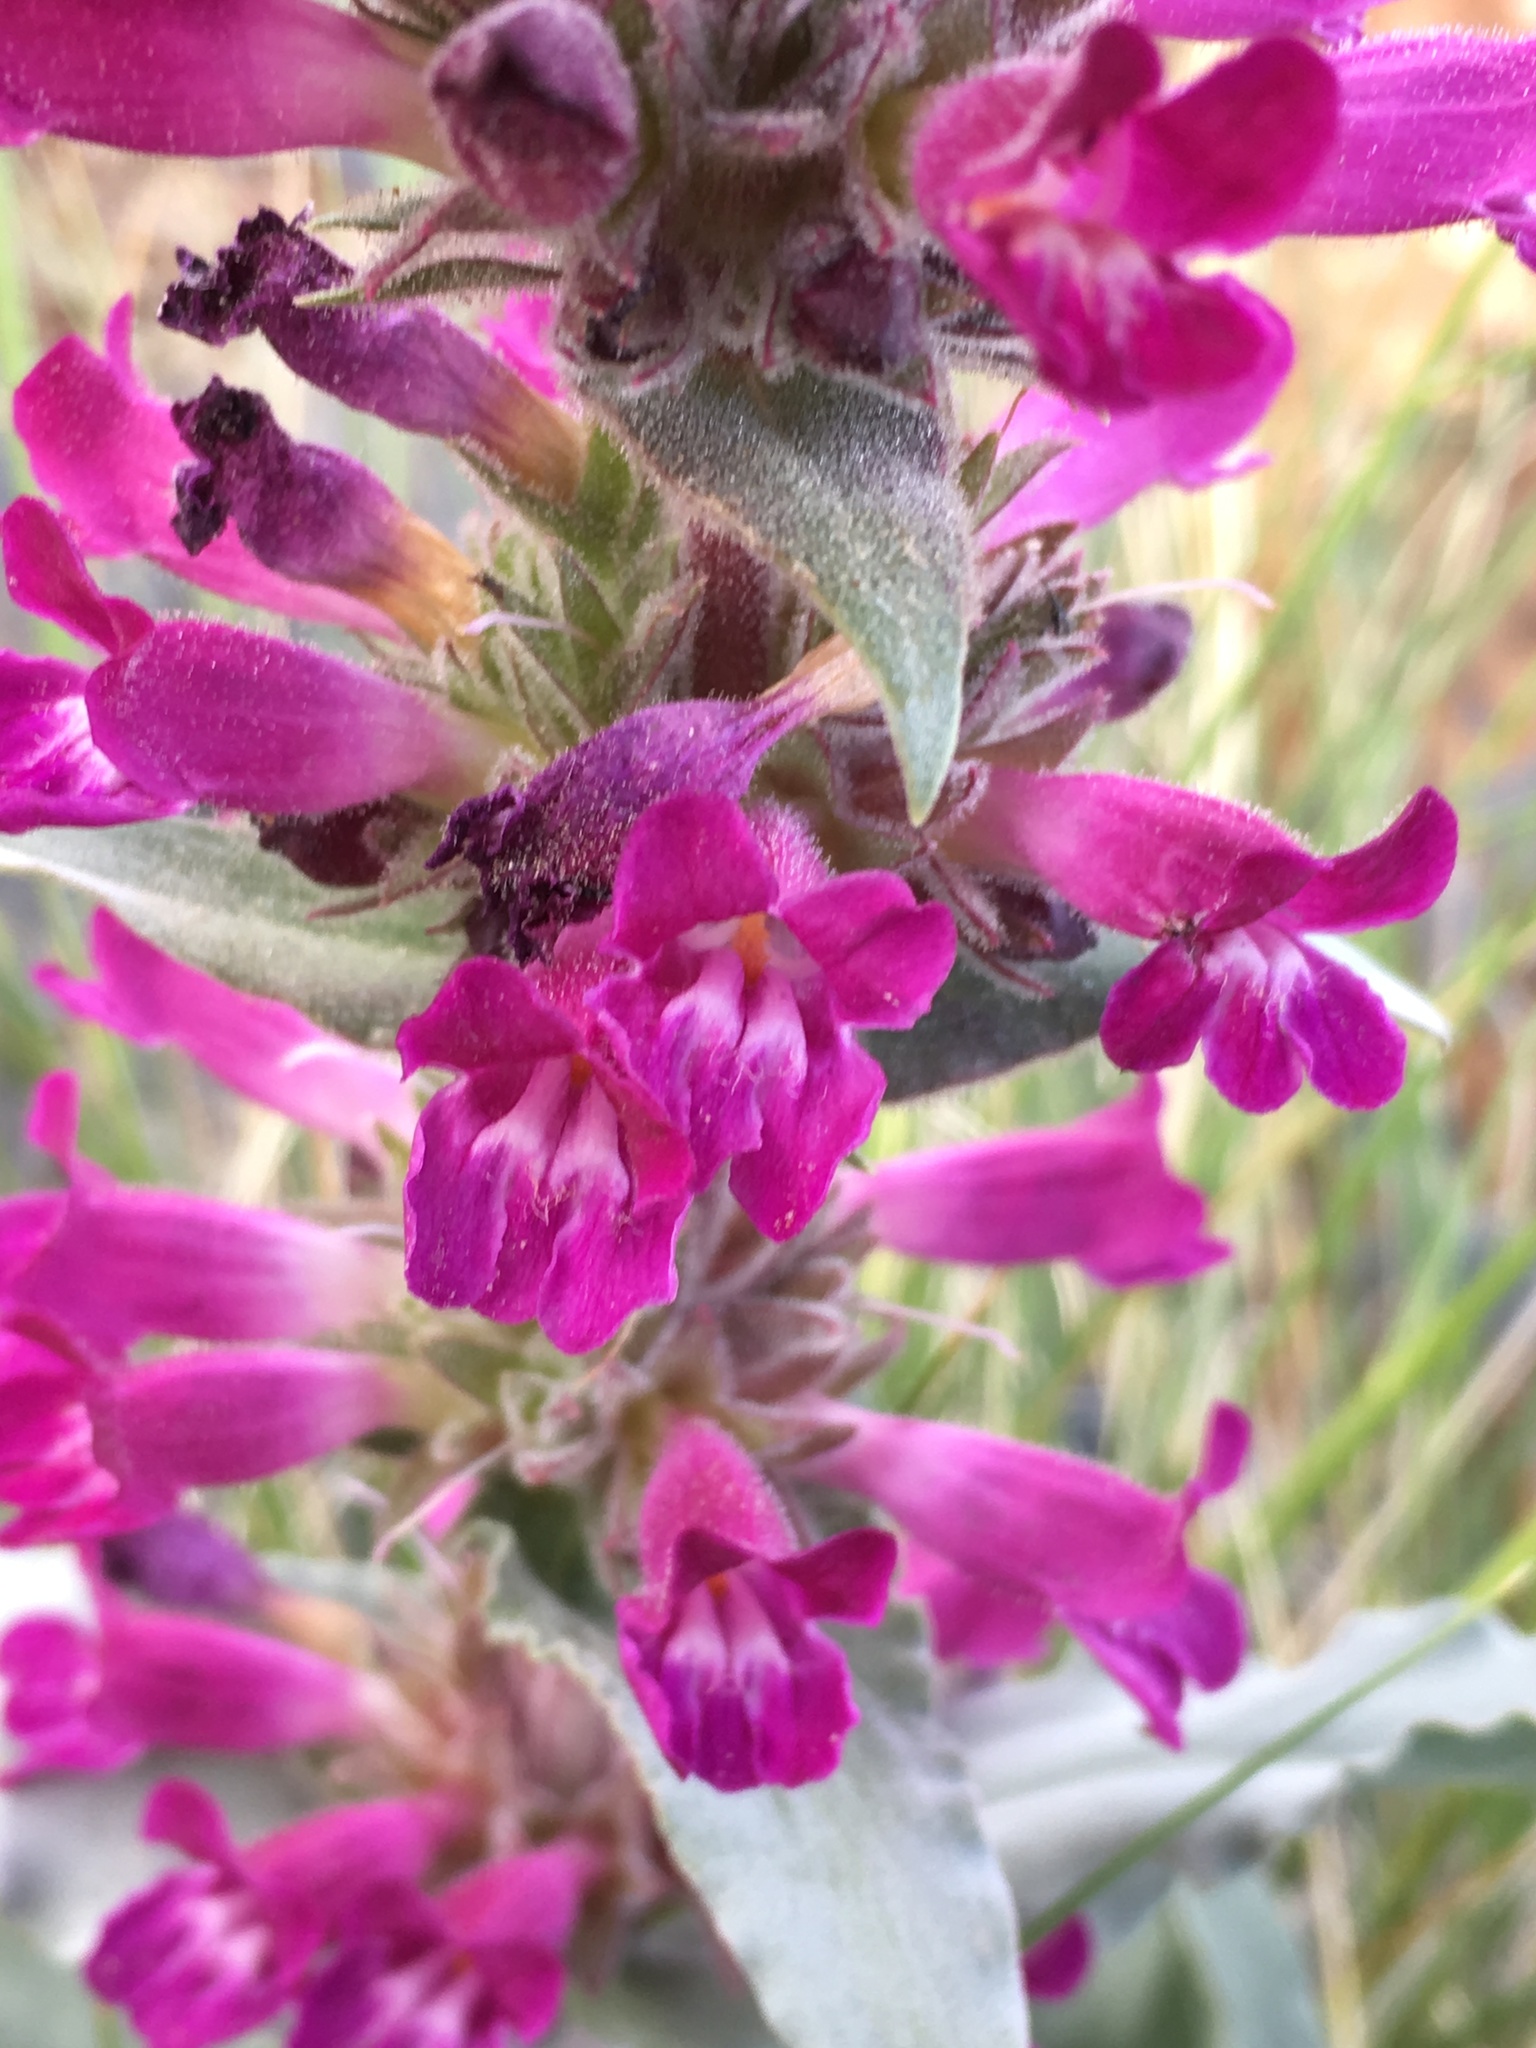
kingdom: Plantae
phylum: Tracheophyta
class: Magnoliopsida
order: Lamiales
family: Plantaginaceae
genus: Penstemon
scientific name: Penstemon monoensis
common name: Mono penstemon
